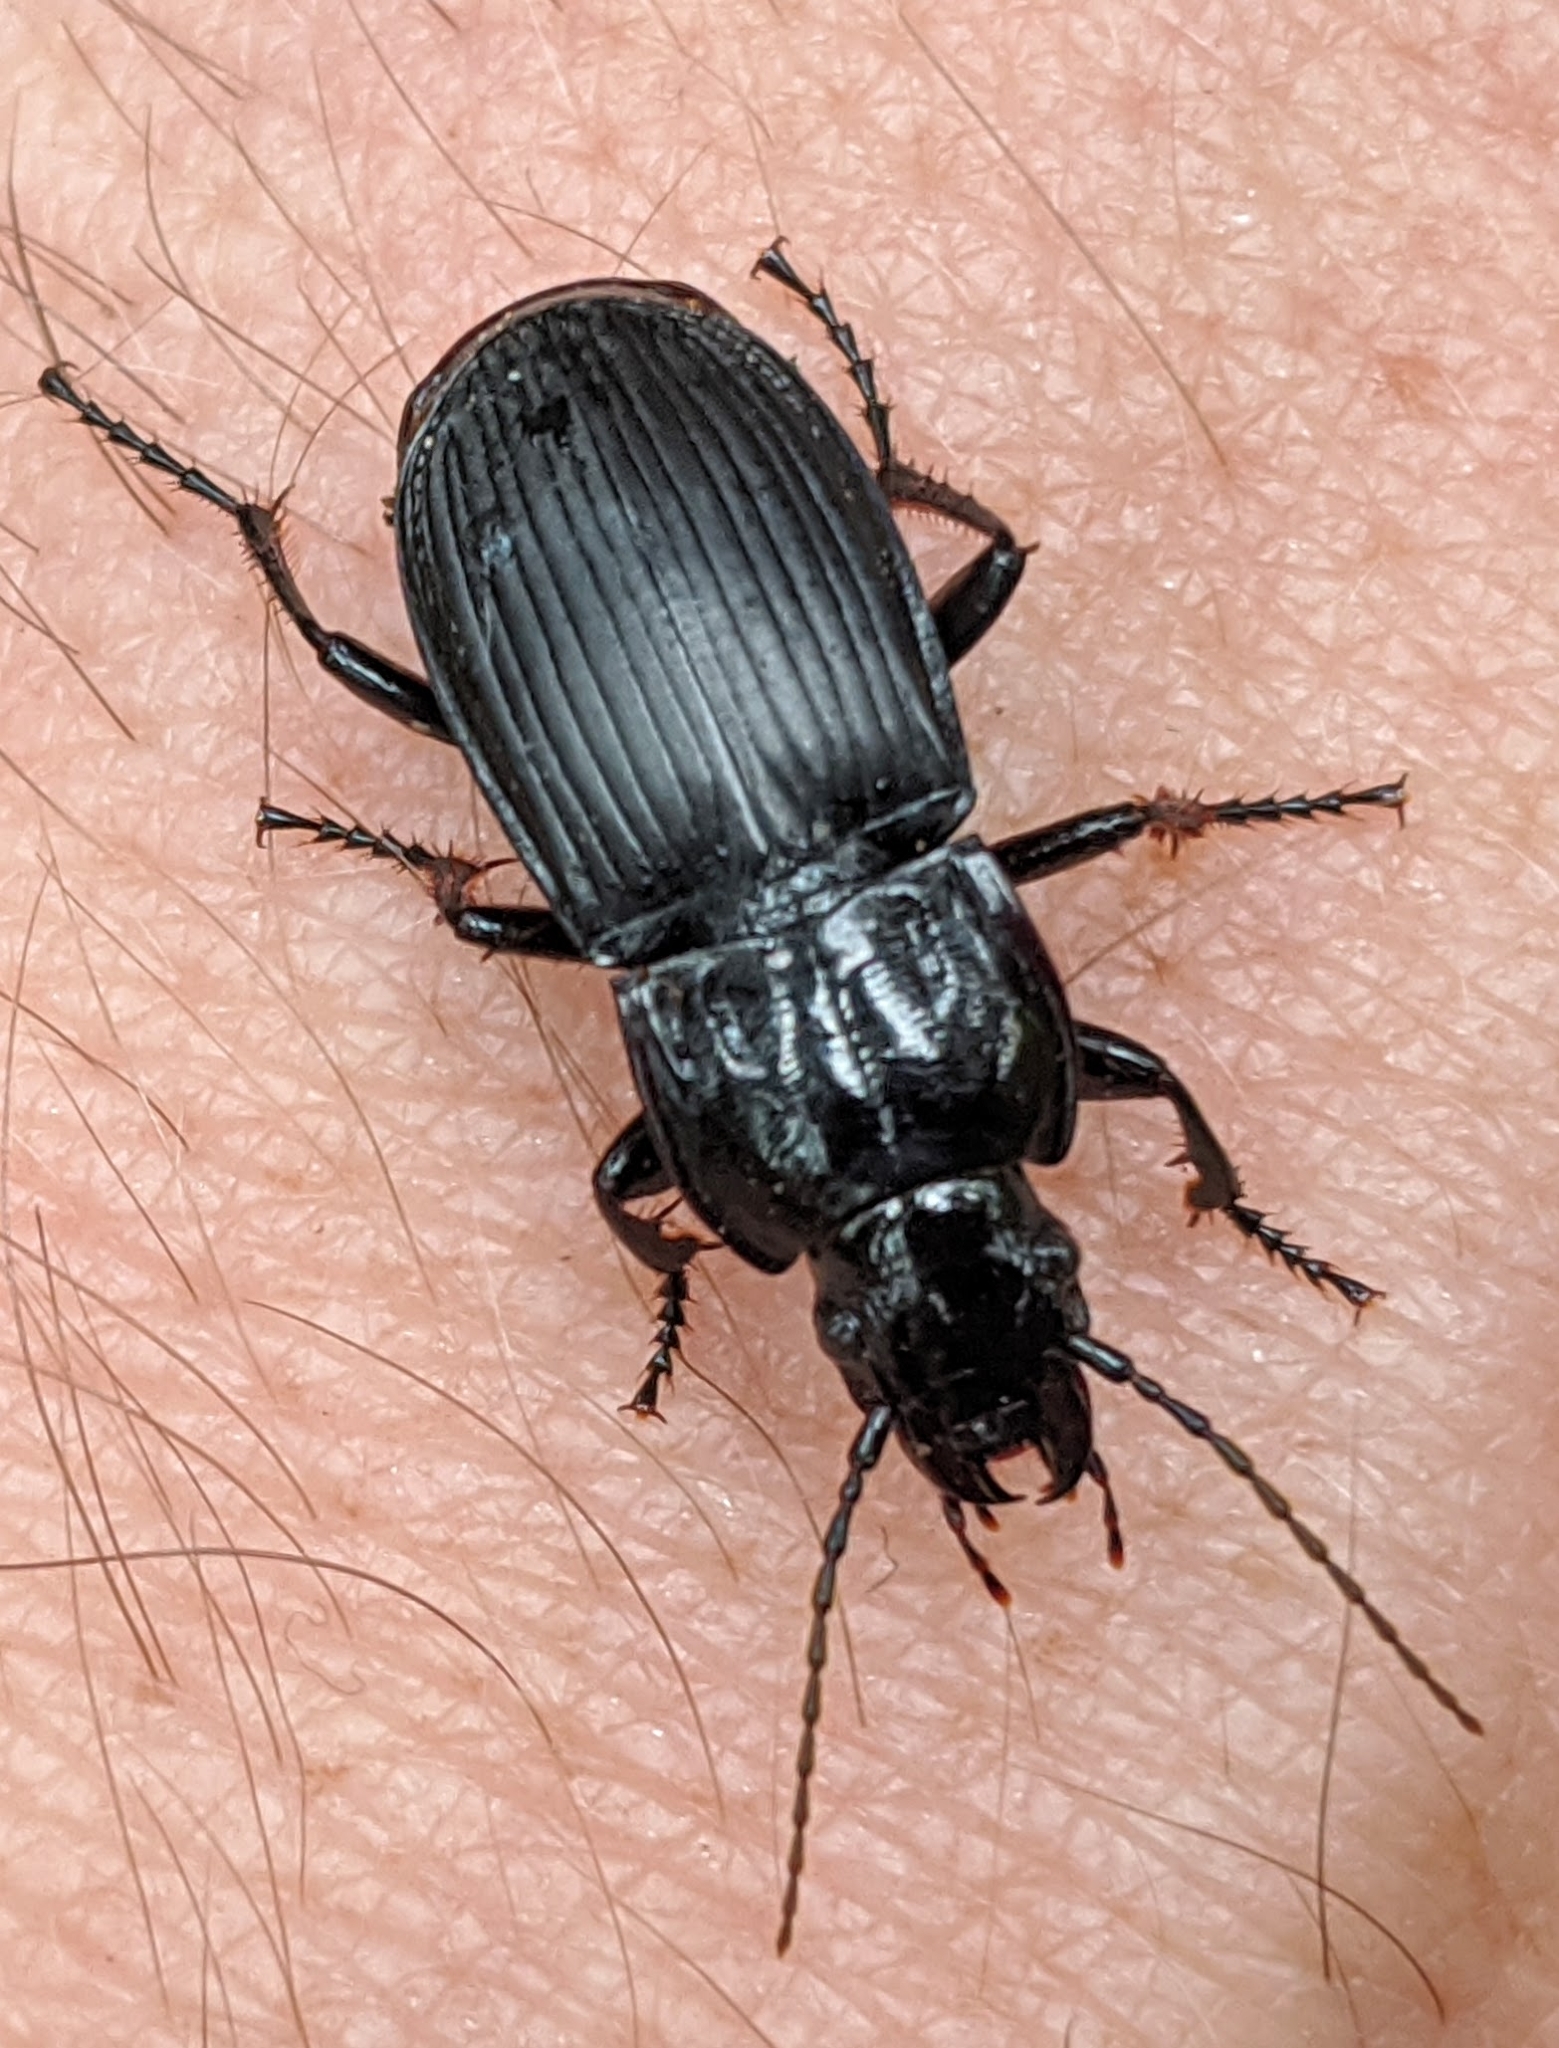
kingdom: Animalia
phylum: Arthropoda
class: Insecta
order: Coleoptera
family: Carabidae
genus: Abax
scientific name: Abax parallelepipedus
